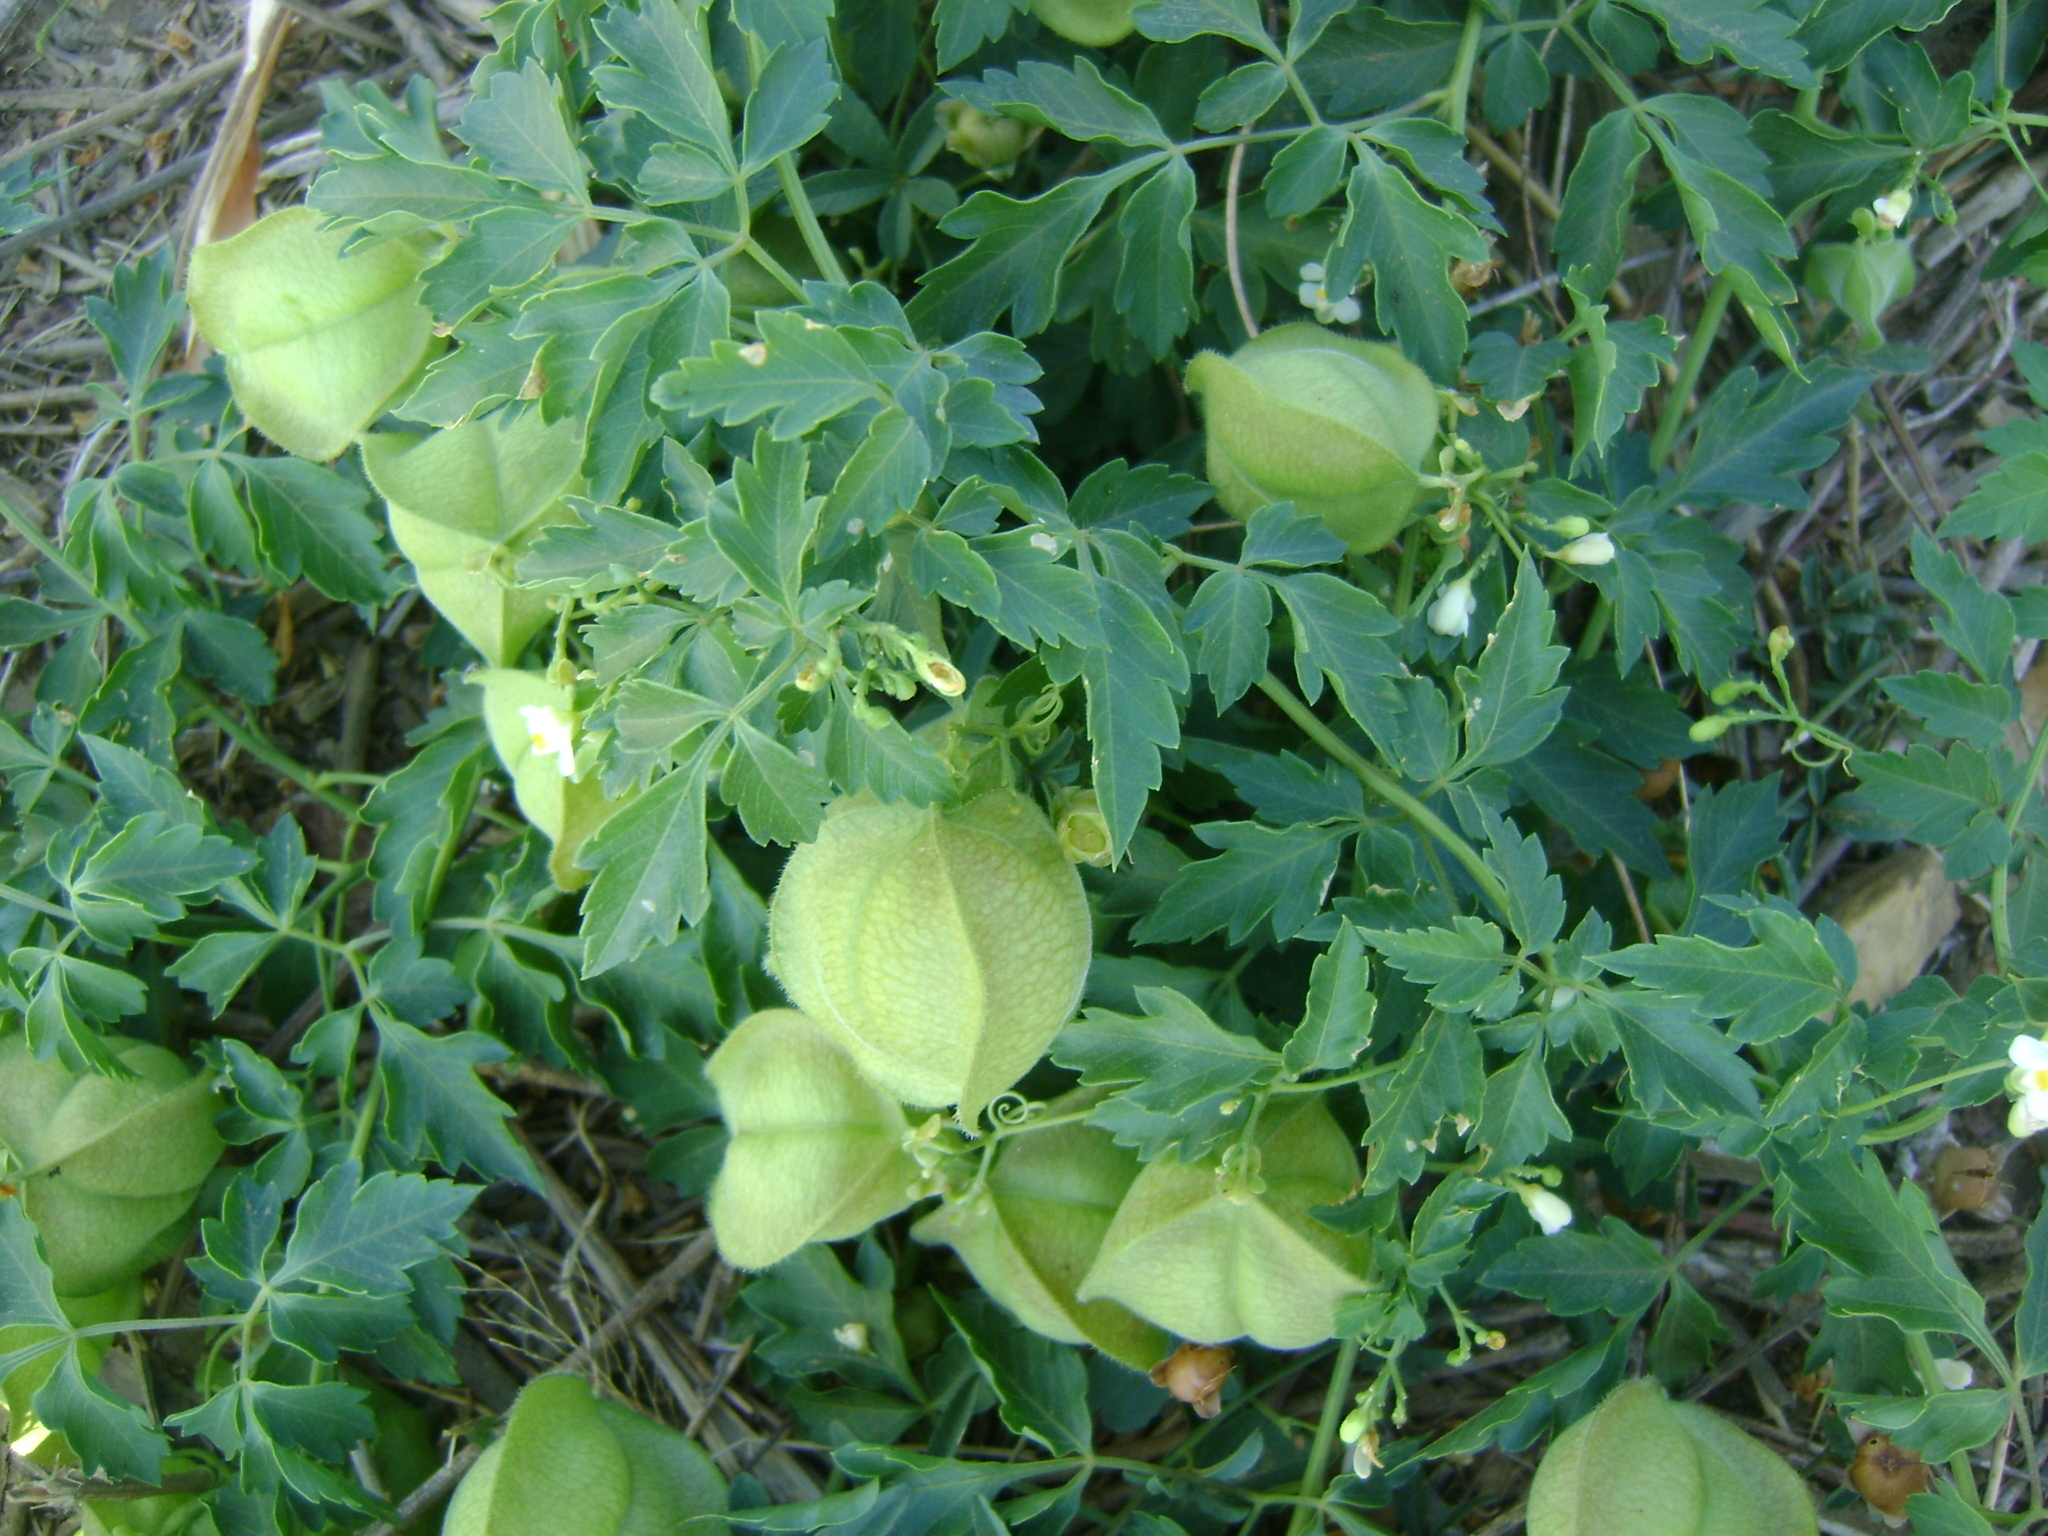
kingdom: Plantae
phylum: Tracheophyta
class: Magnoliopsida
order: Sapindales
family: Sapindaceae
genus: Cardiospermum
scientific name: Cardiospermum halicacabum
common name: Balloon vine
